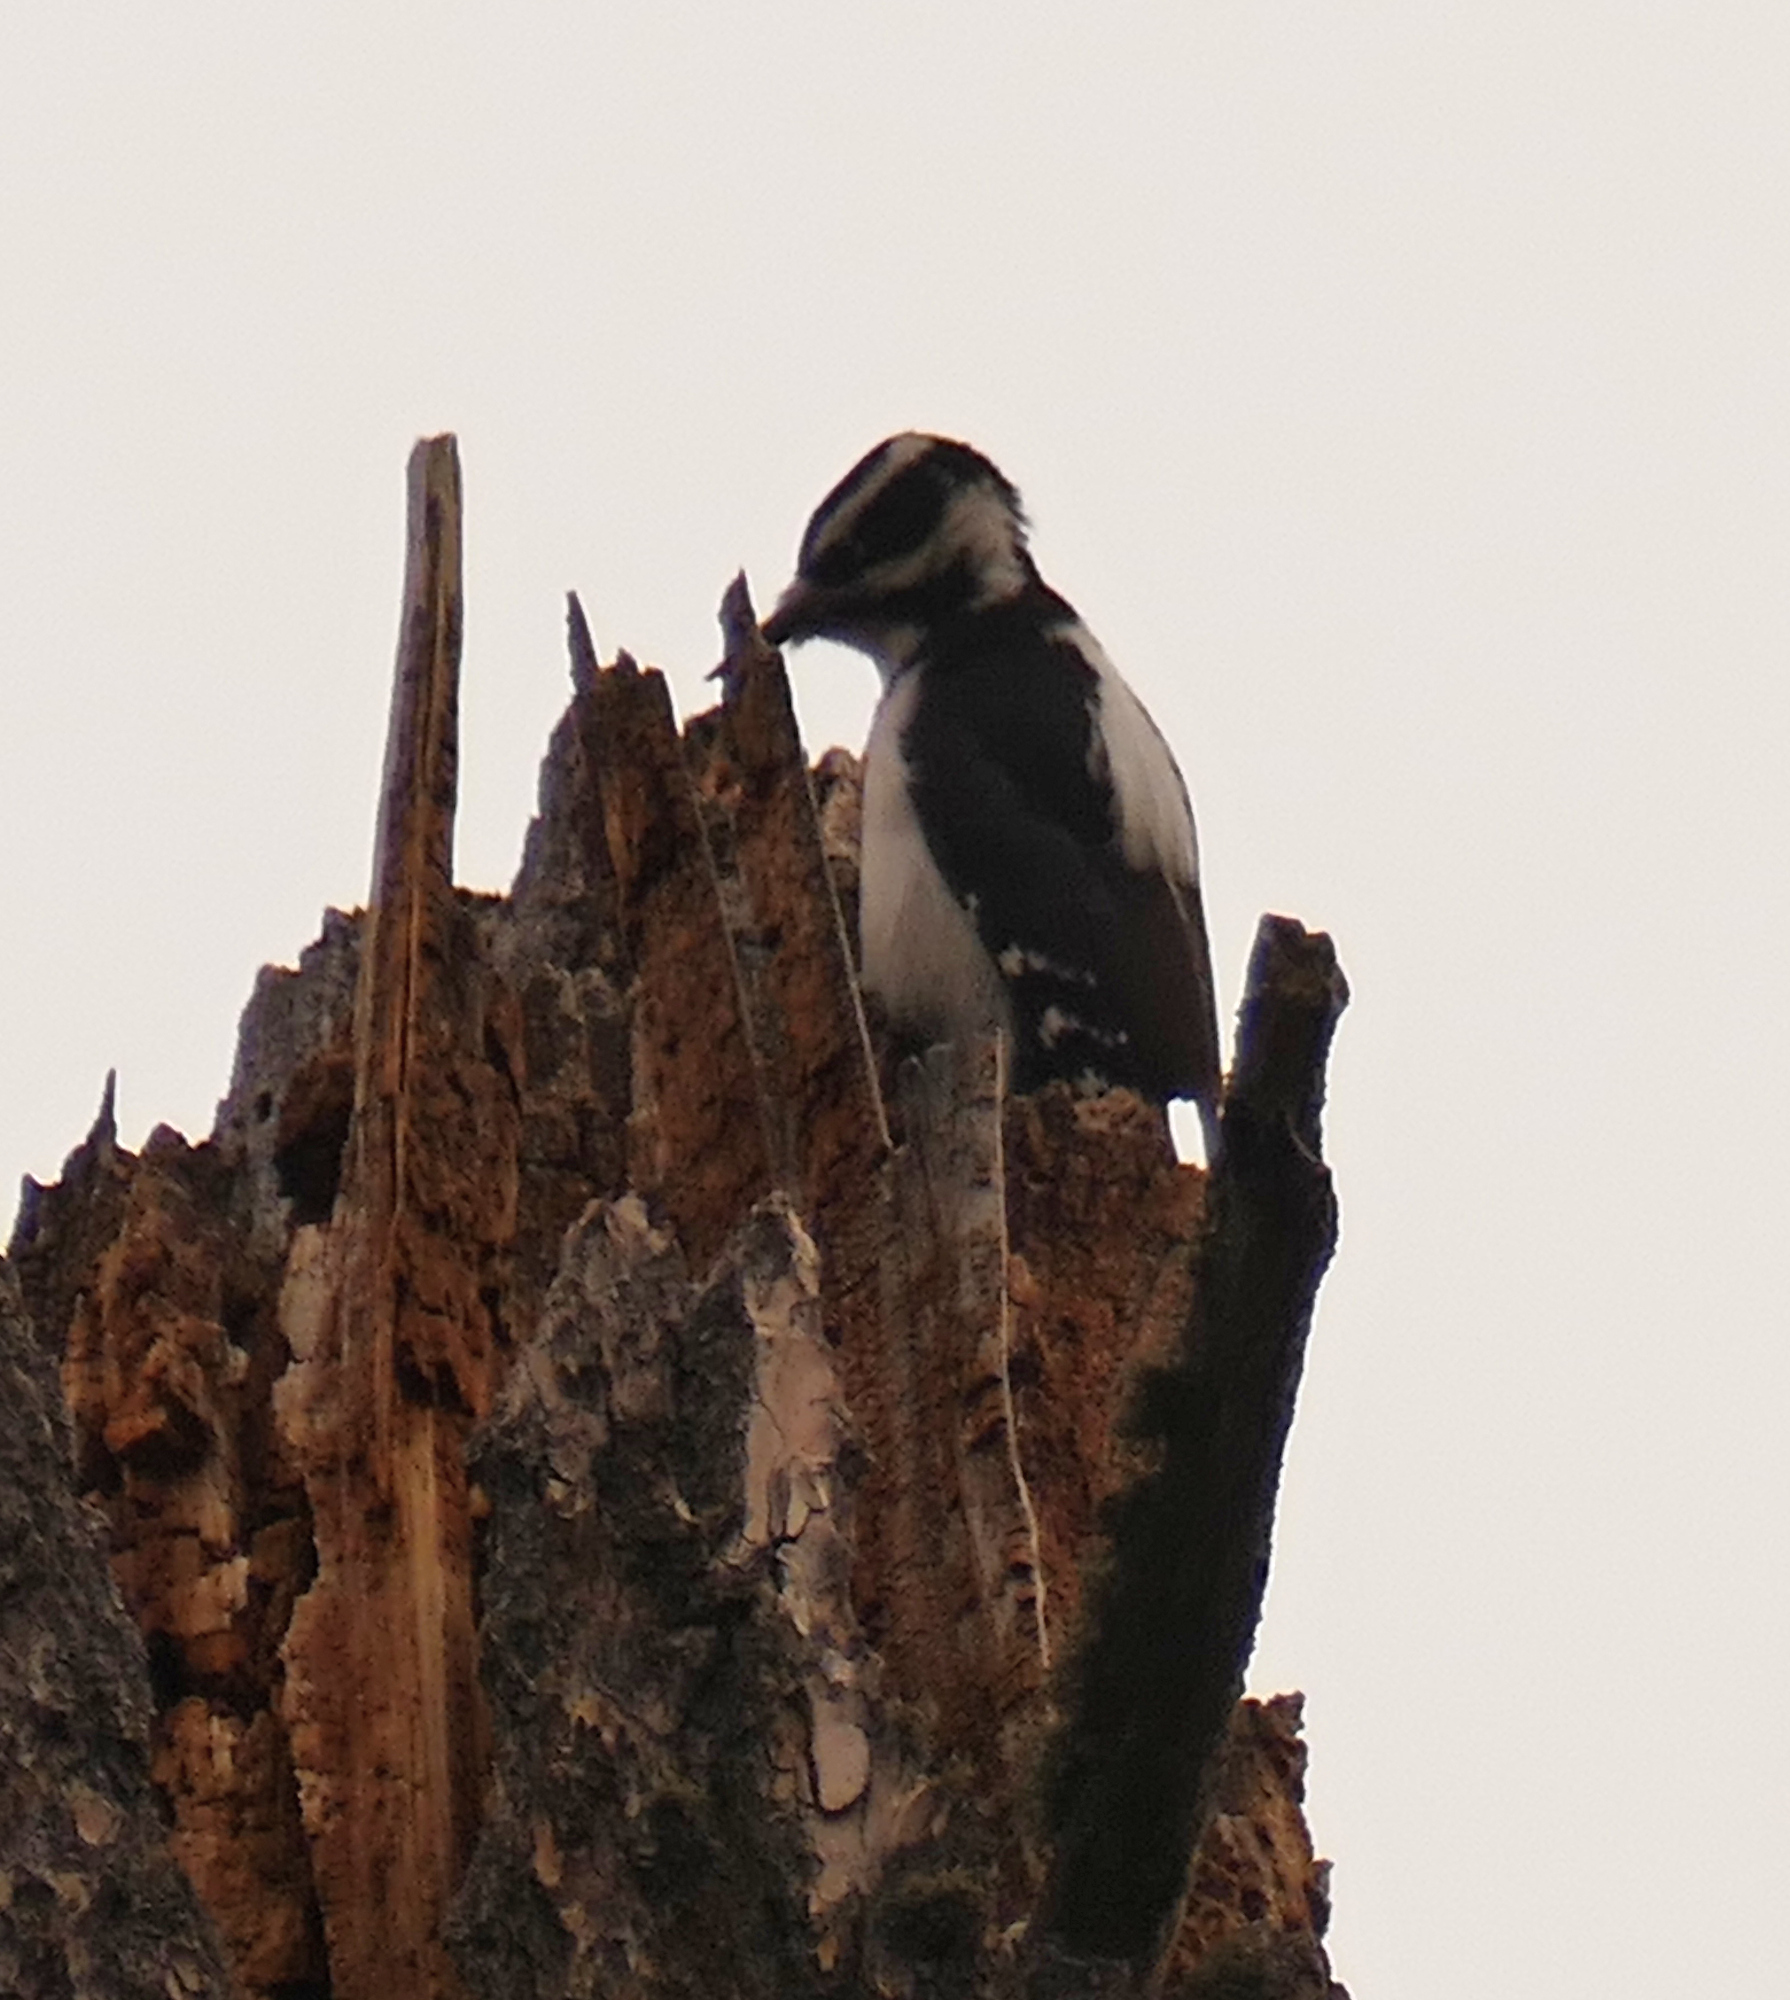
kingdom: Animalia
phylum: Chordata
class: Aves
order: Piciformes
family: Picidae
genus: Leuconotopicus
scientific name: Leuconotopicus villosus
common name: Hairy woodpecker
